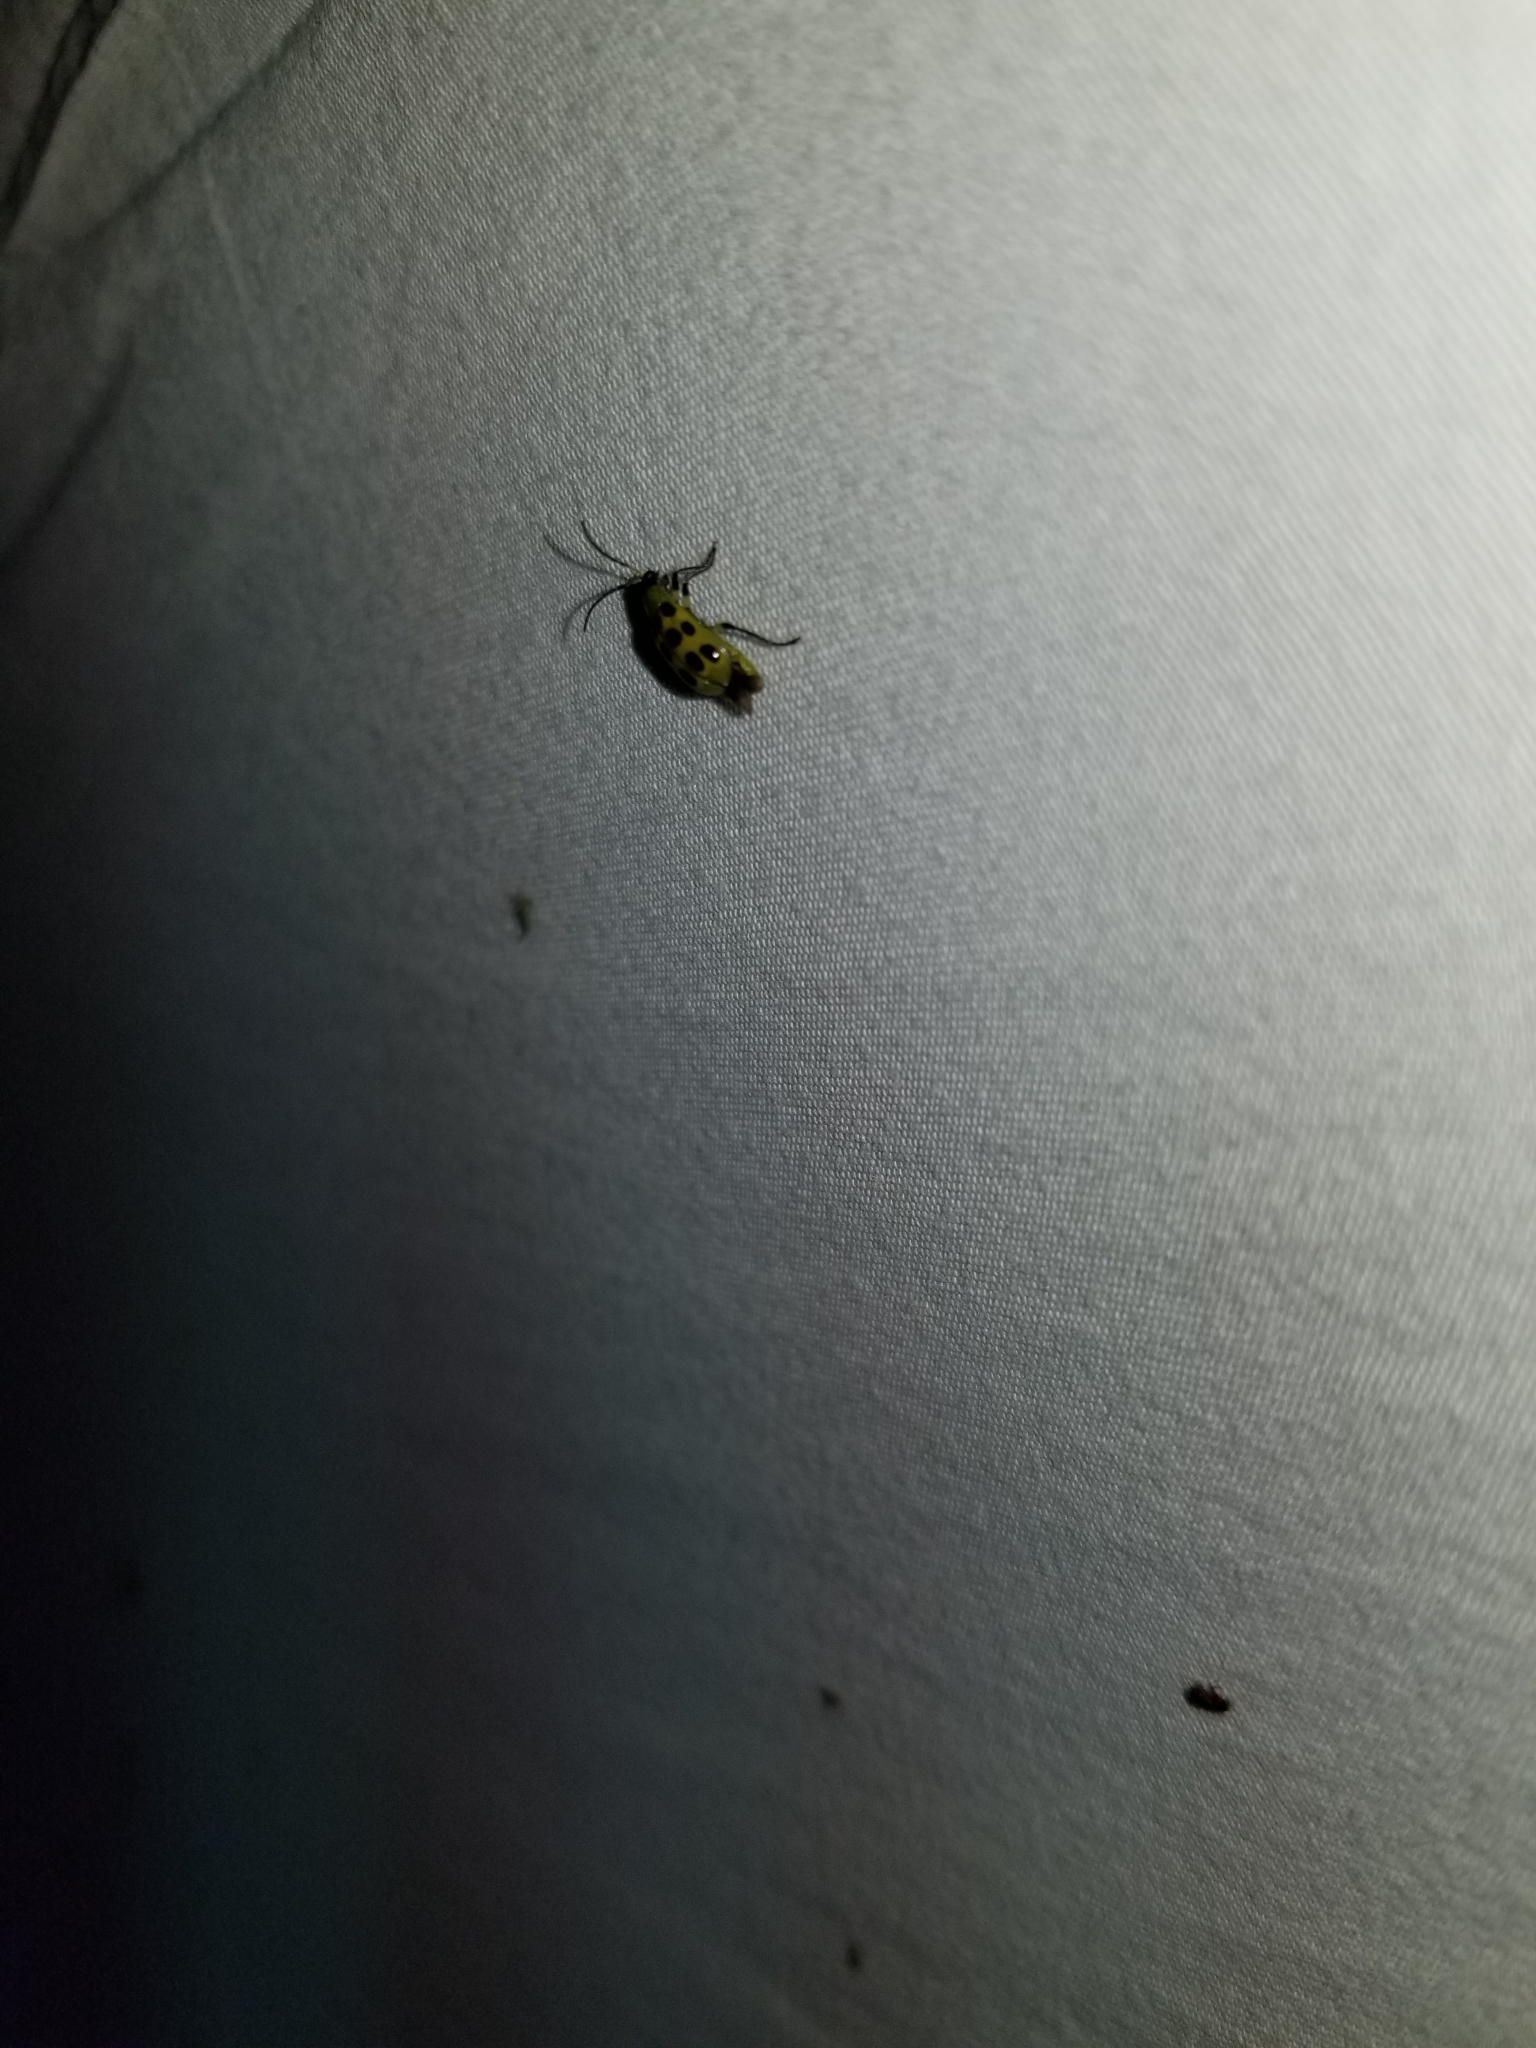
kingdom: Animalia
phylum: Arthropoda
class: Insecta
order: Coleoptera
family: Chrysomelidae
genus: Diabrotica
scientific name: Diabrotica undecimpunctata
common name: Spotted cucumber beetle
